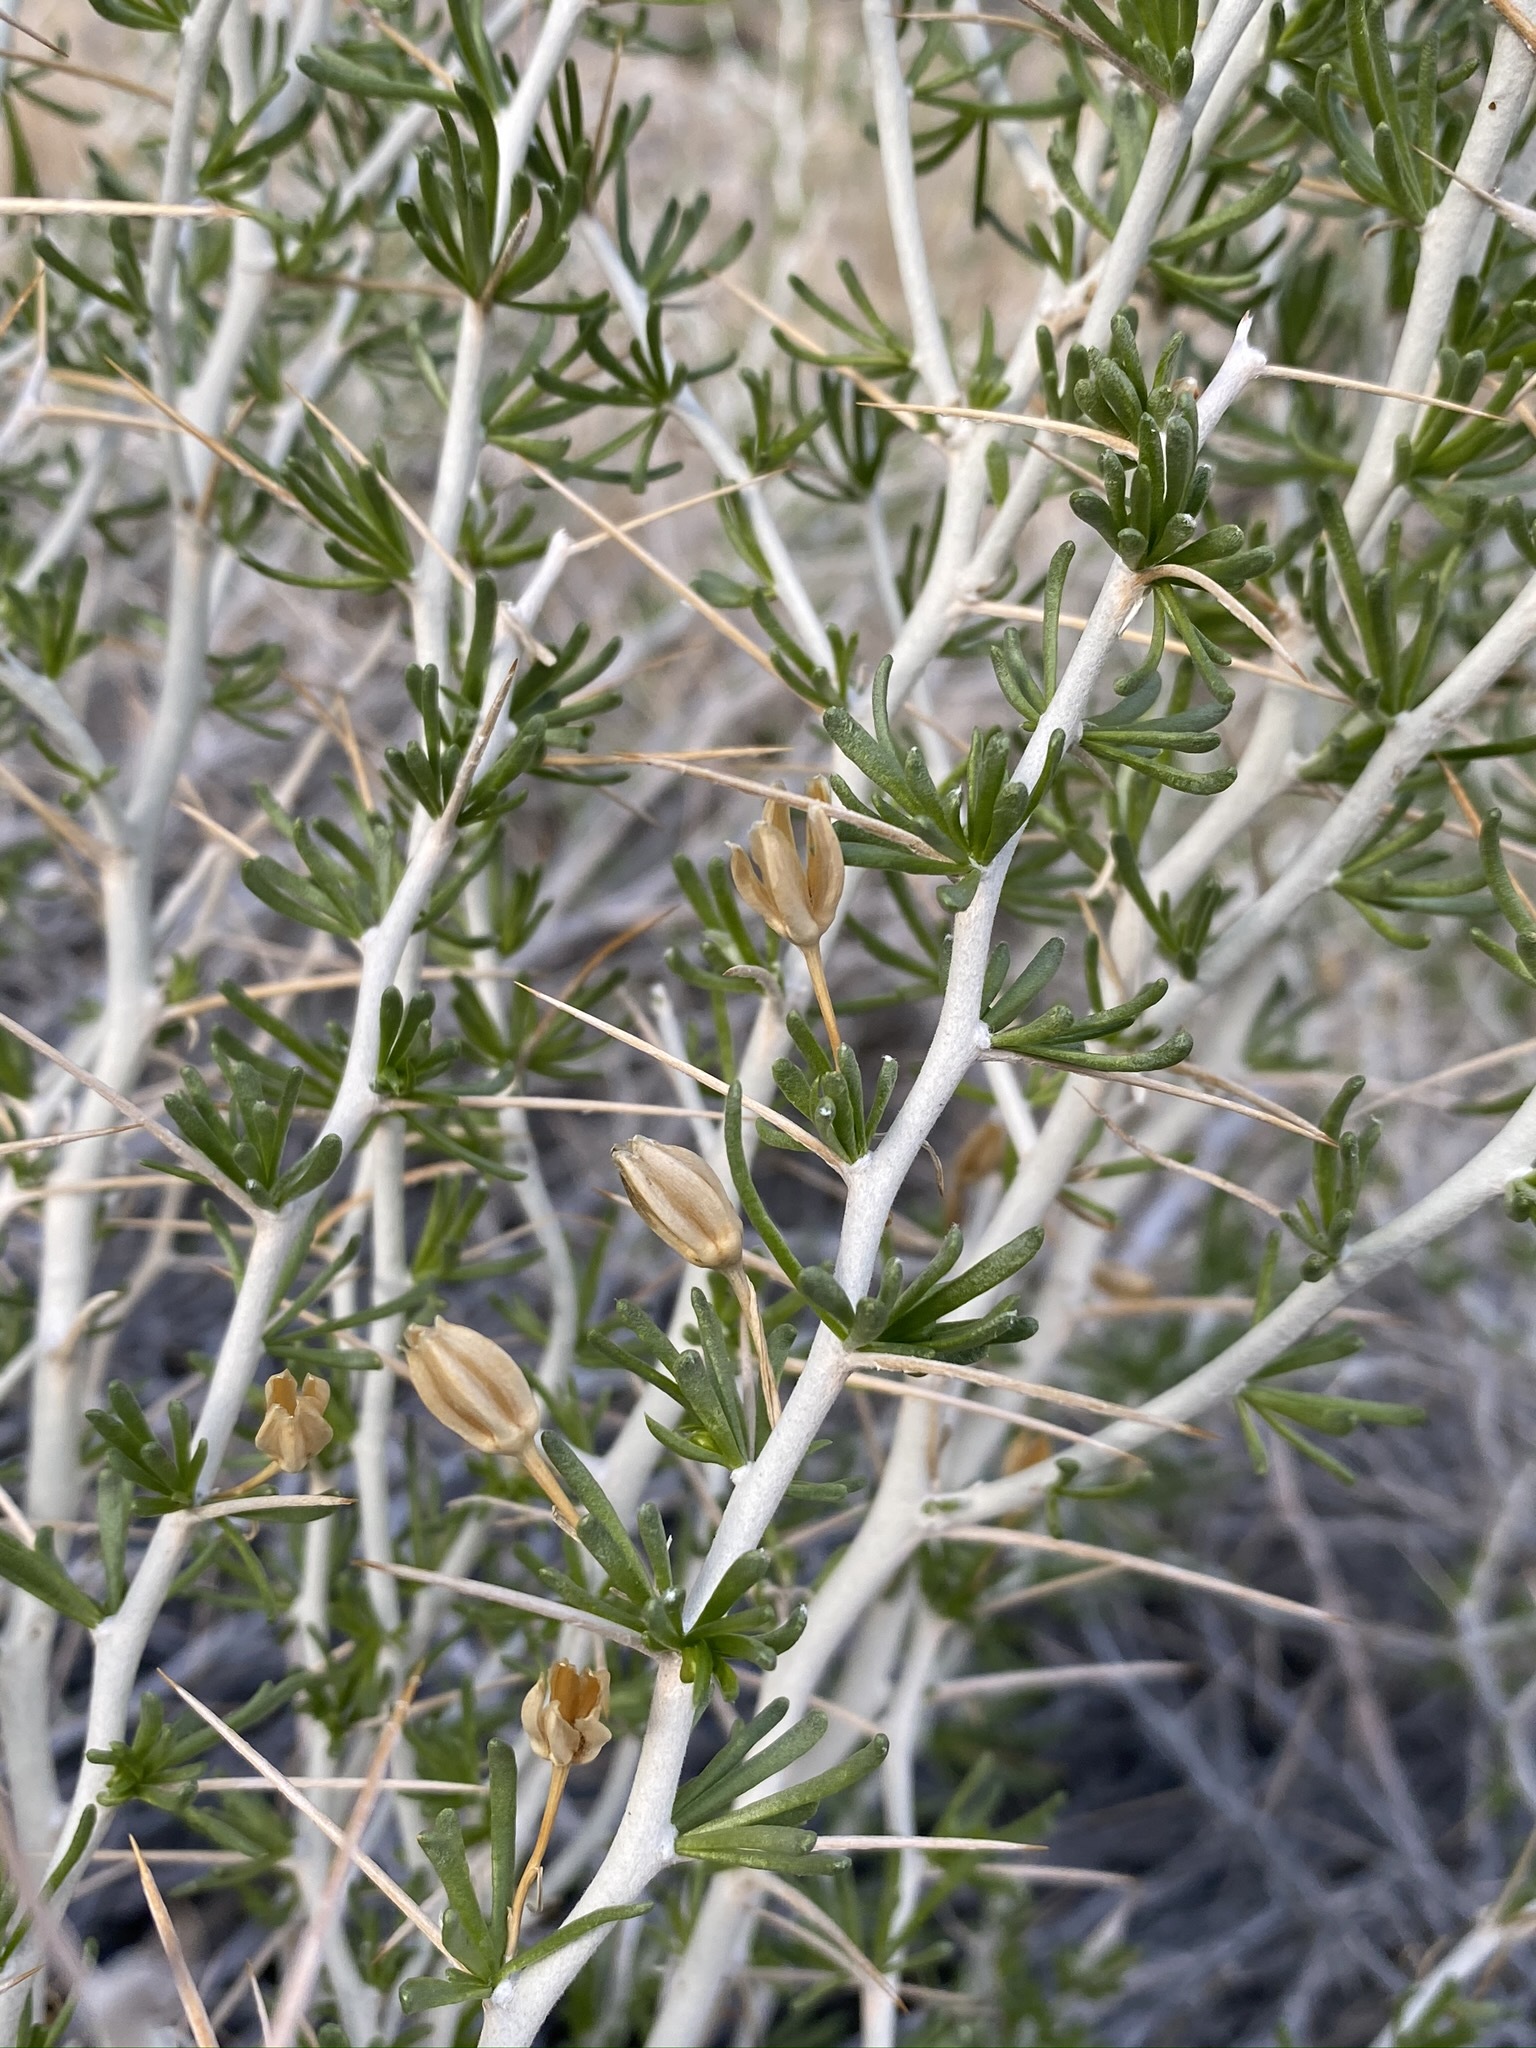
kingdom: Plantae
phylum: Tracheophyta
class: Magnoliopsida
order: Asterales
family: Asteraceae
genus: Tetradymia
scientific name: Tetradymia axillaris
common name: Long-spine horsebrush
